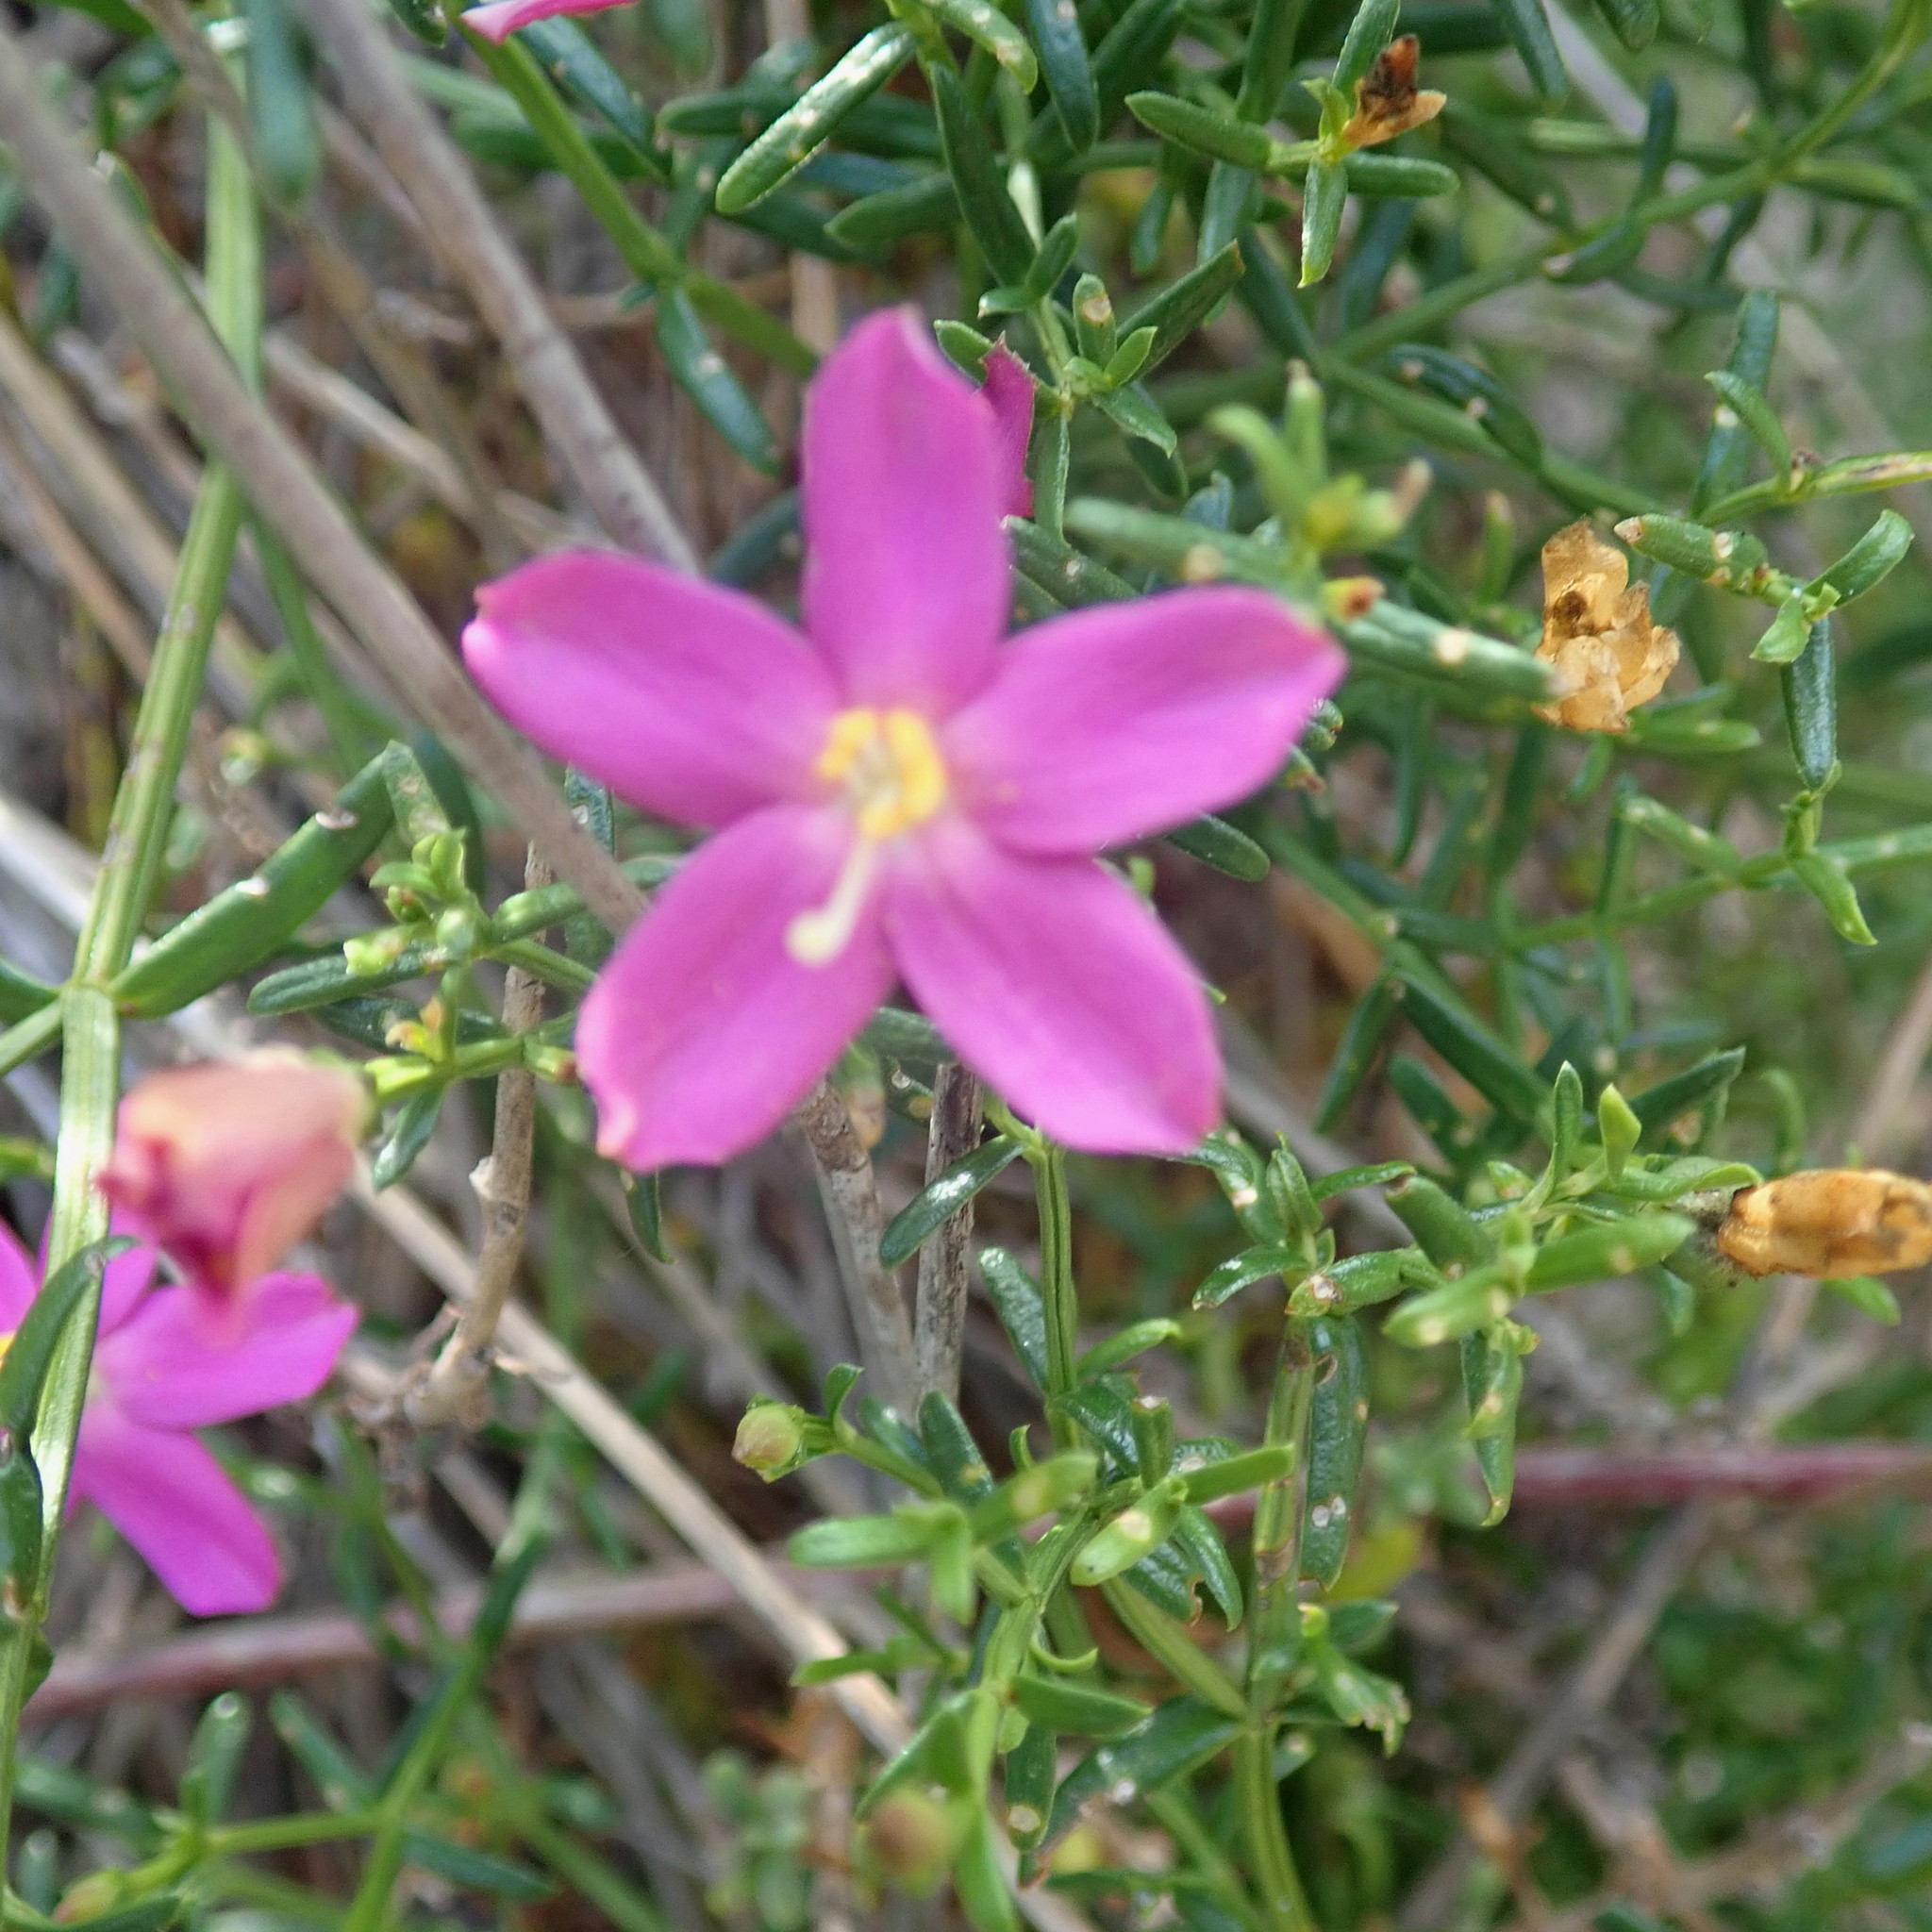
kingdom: Plantae
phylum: Tracheophyta
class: Magnoliopsida
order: Gentianales
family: Gentianaceae
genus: Chironia
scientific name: Chironia baccifera
